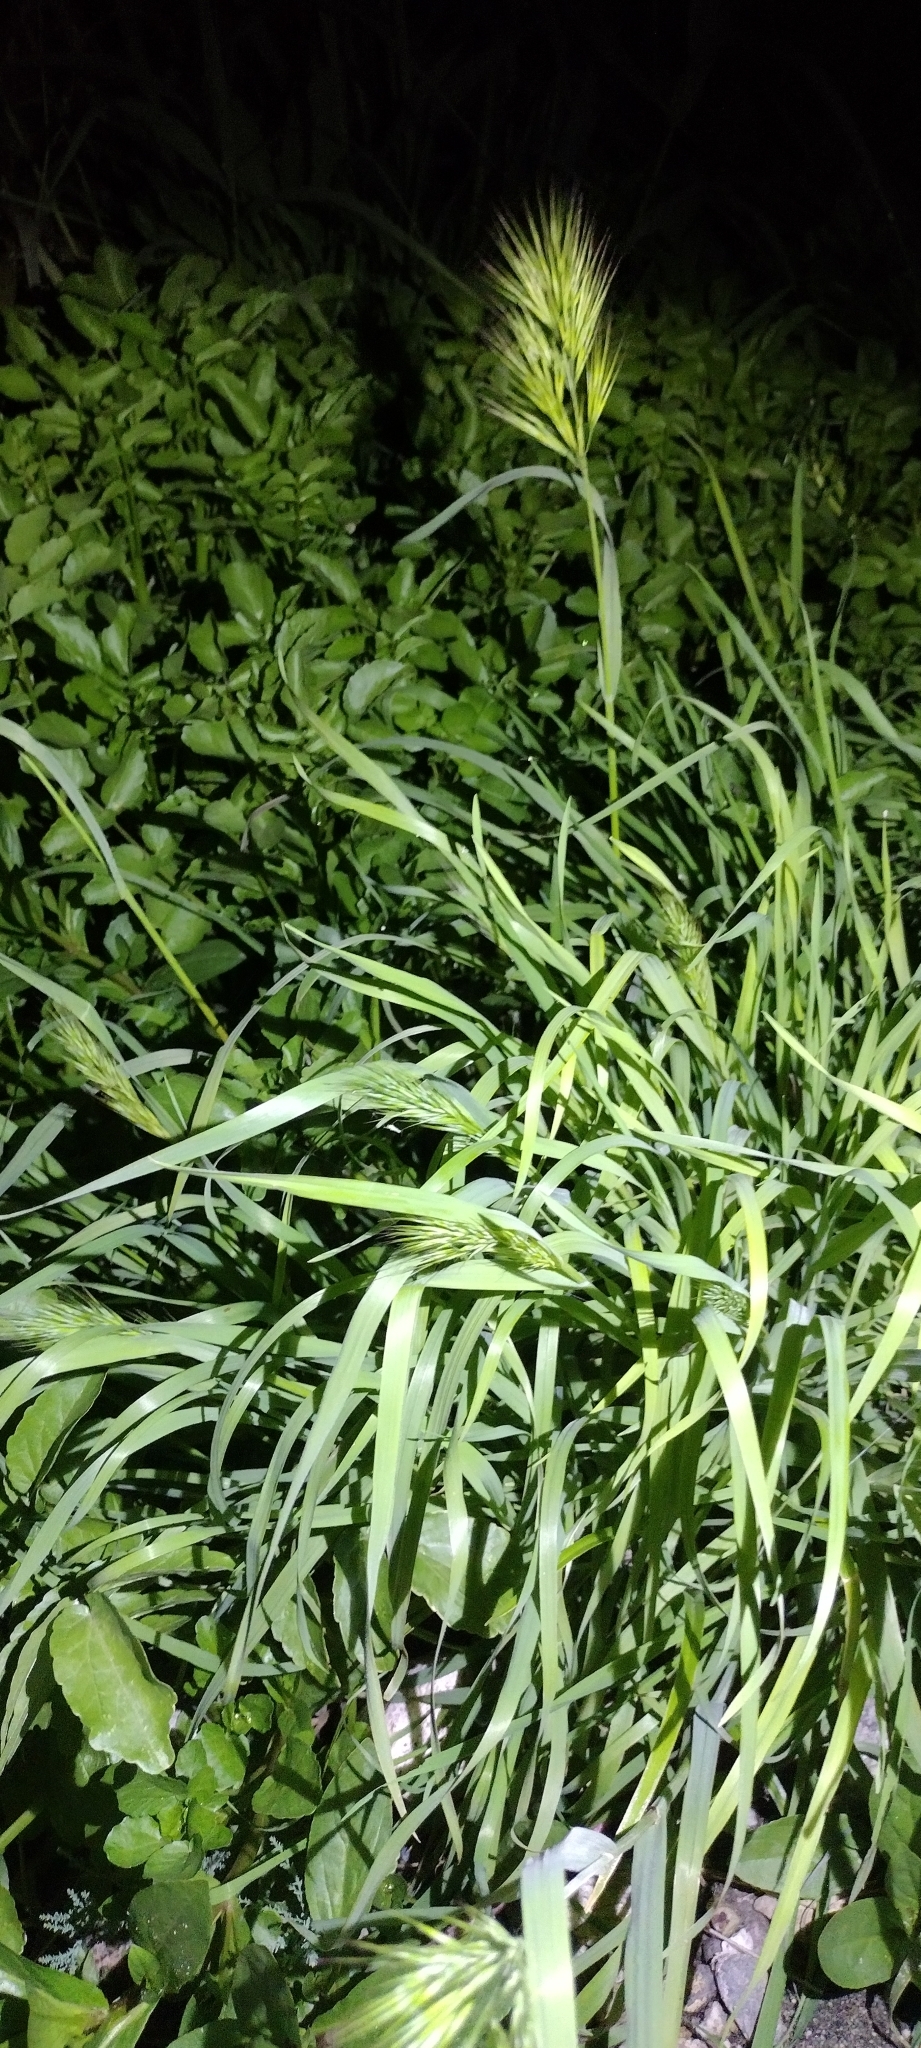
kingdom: Plantae
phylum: Tracheophyta
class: Liliopsida
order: Poales
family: Poaceae
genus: Bromus
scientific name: Bromus rubens
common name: Red brome
